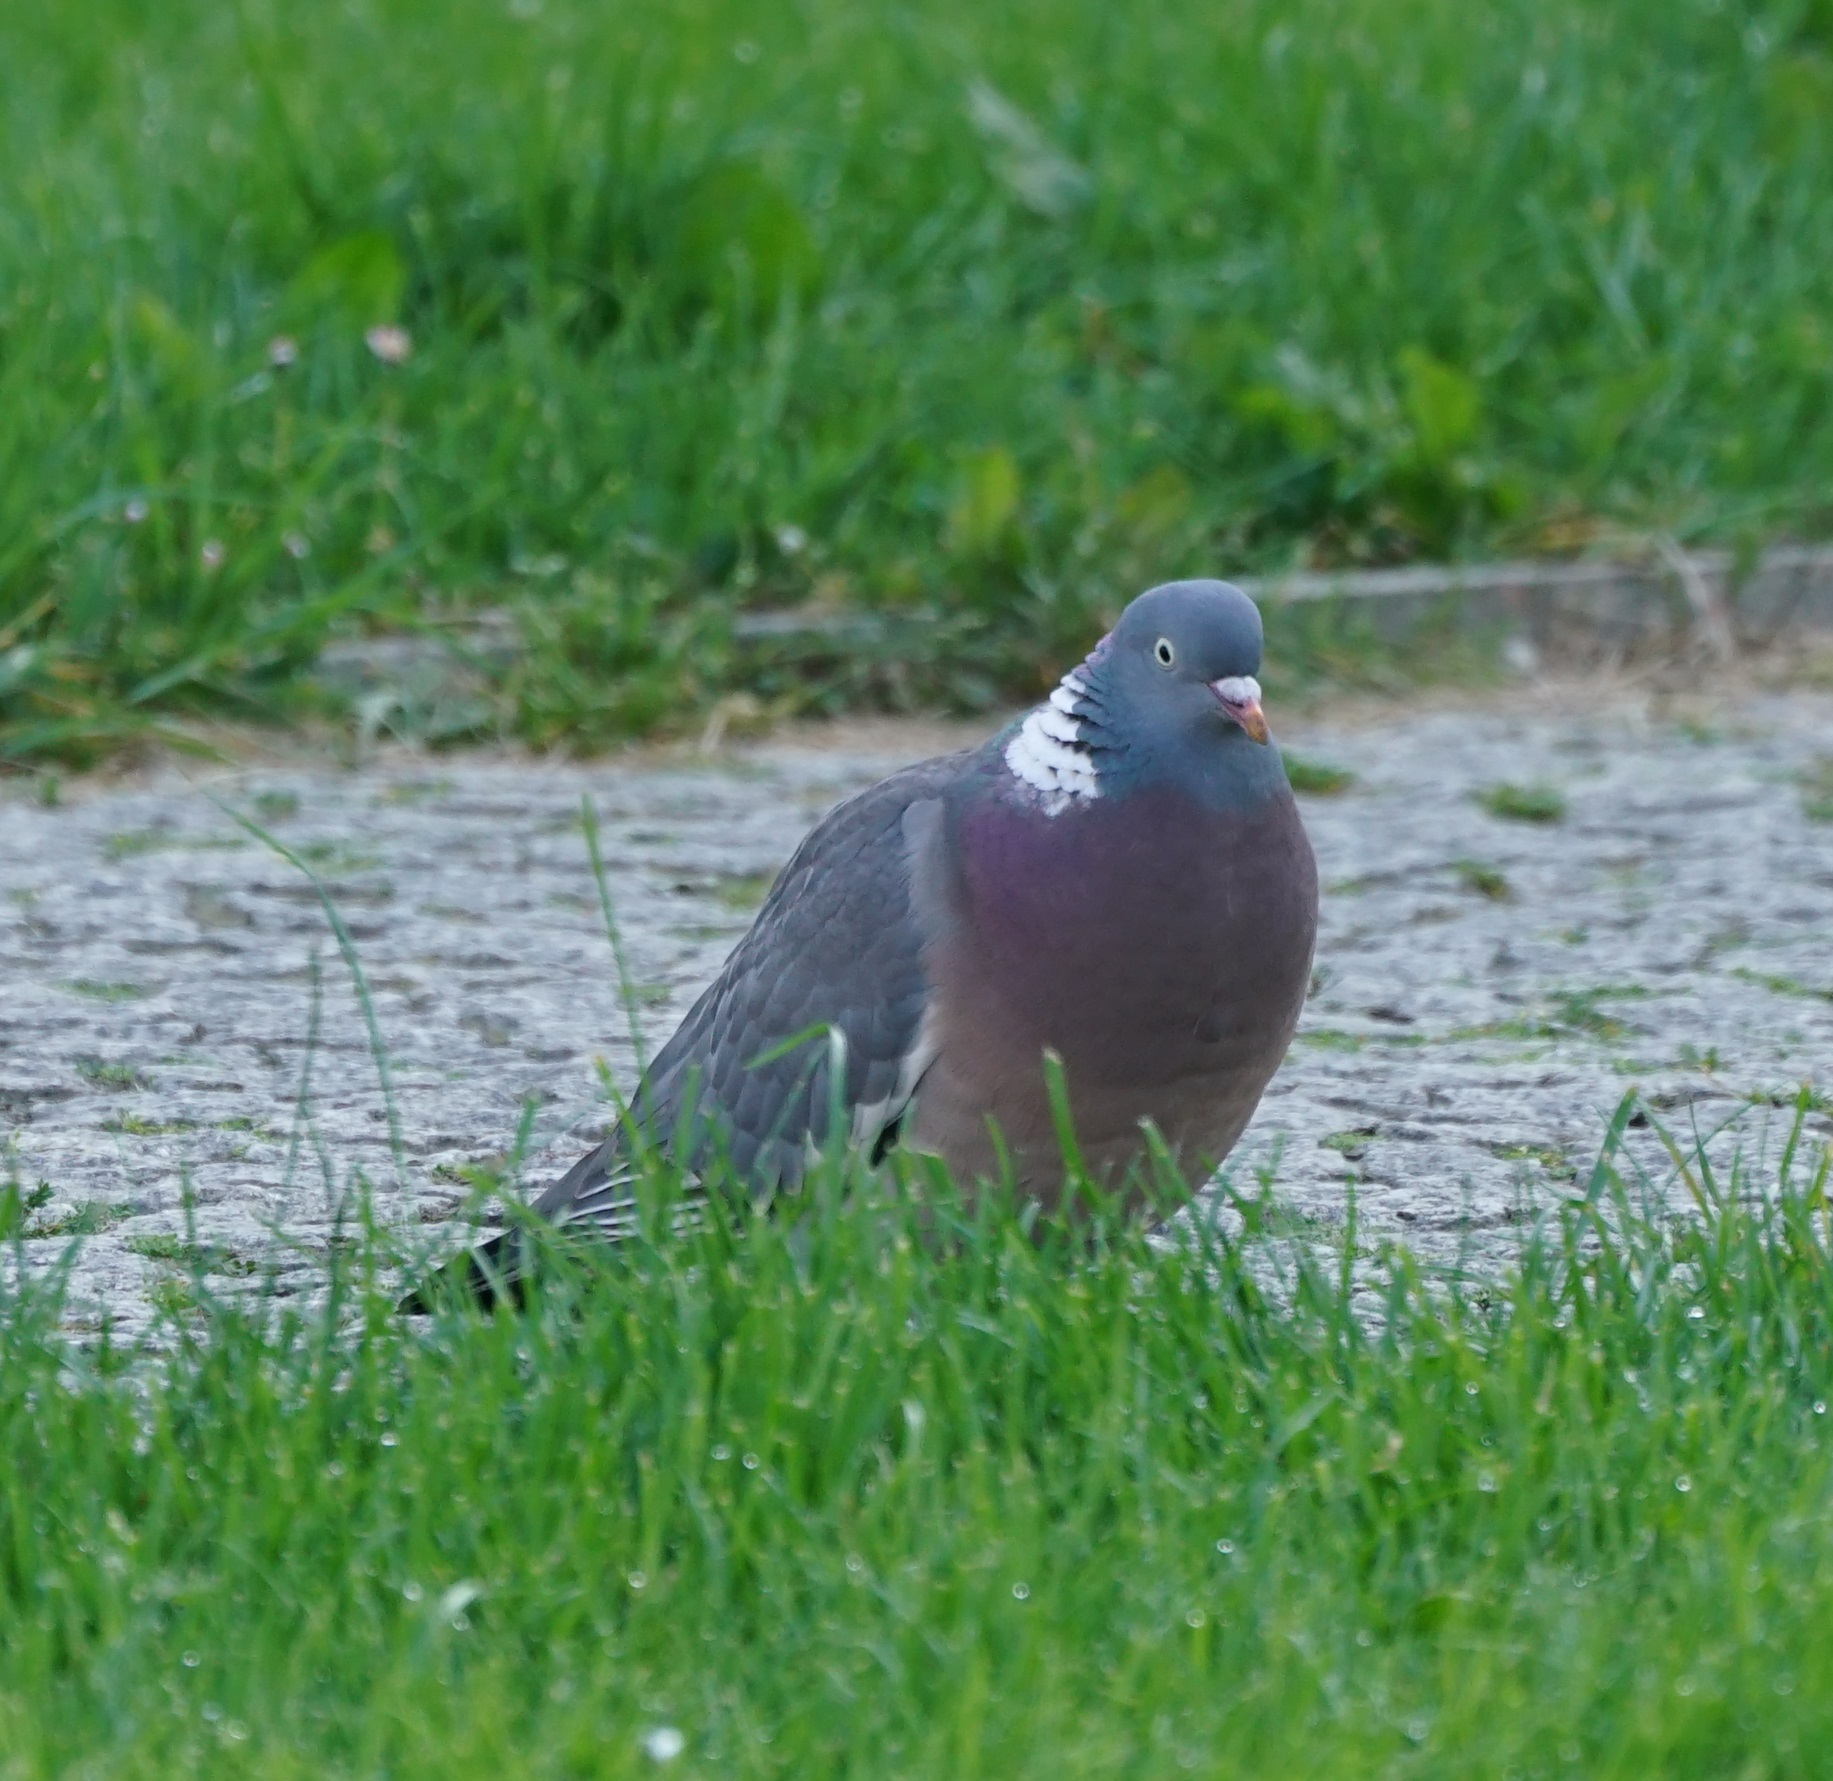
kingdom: Animalia
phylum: Chordata
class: Aves
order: Columbiformes
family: Columbidae
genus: Columba
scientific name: Columba palumbus
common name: Common wood pigeon
